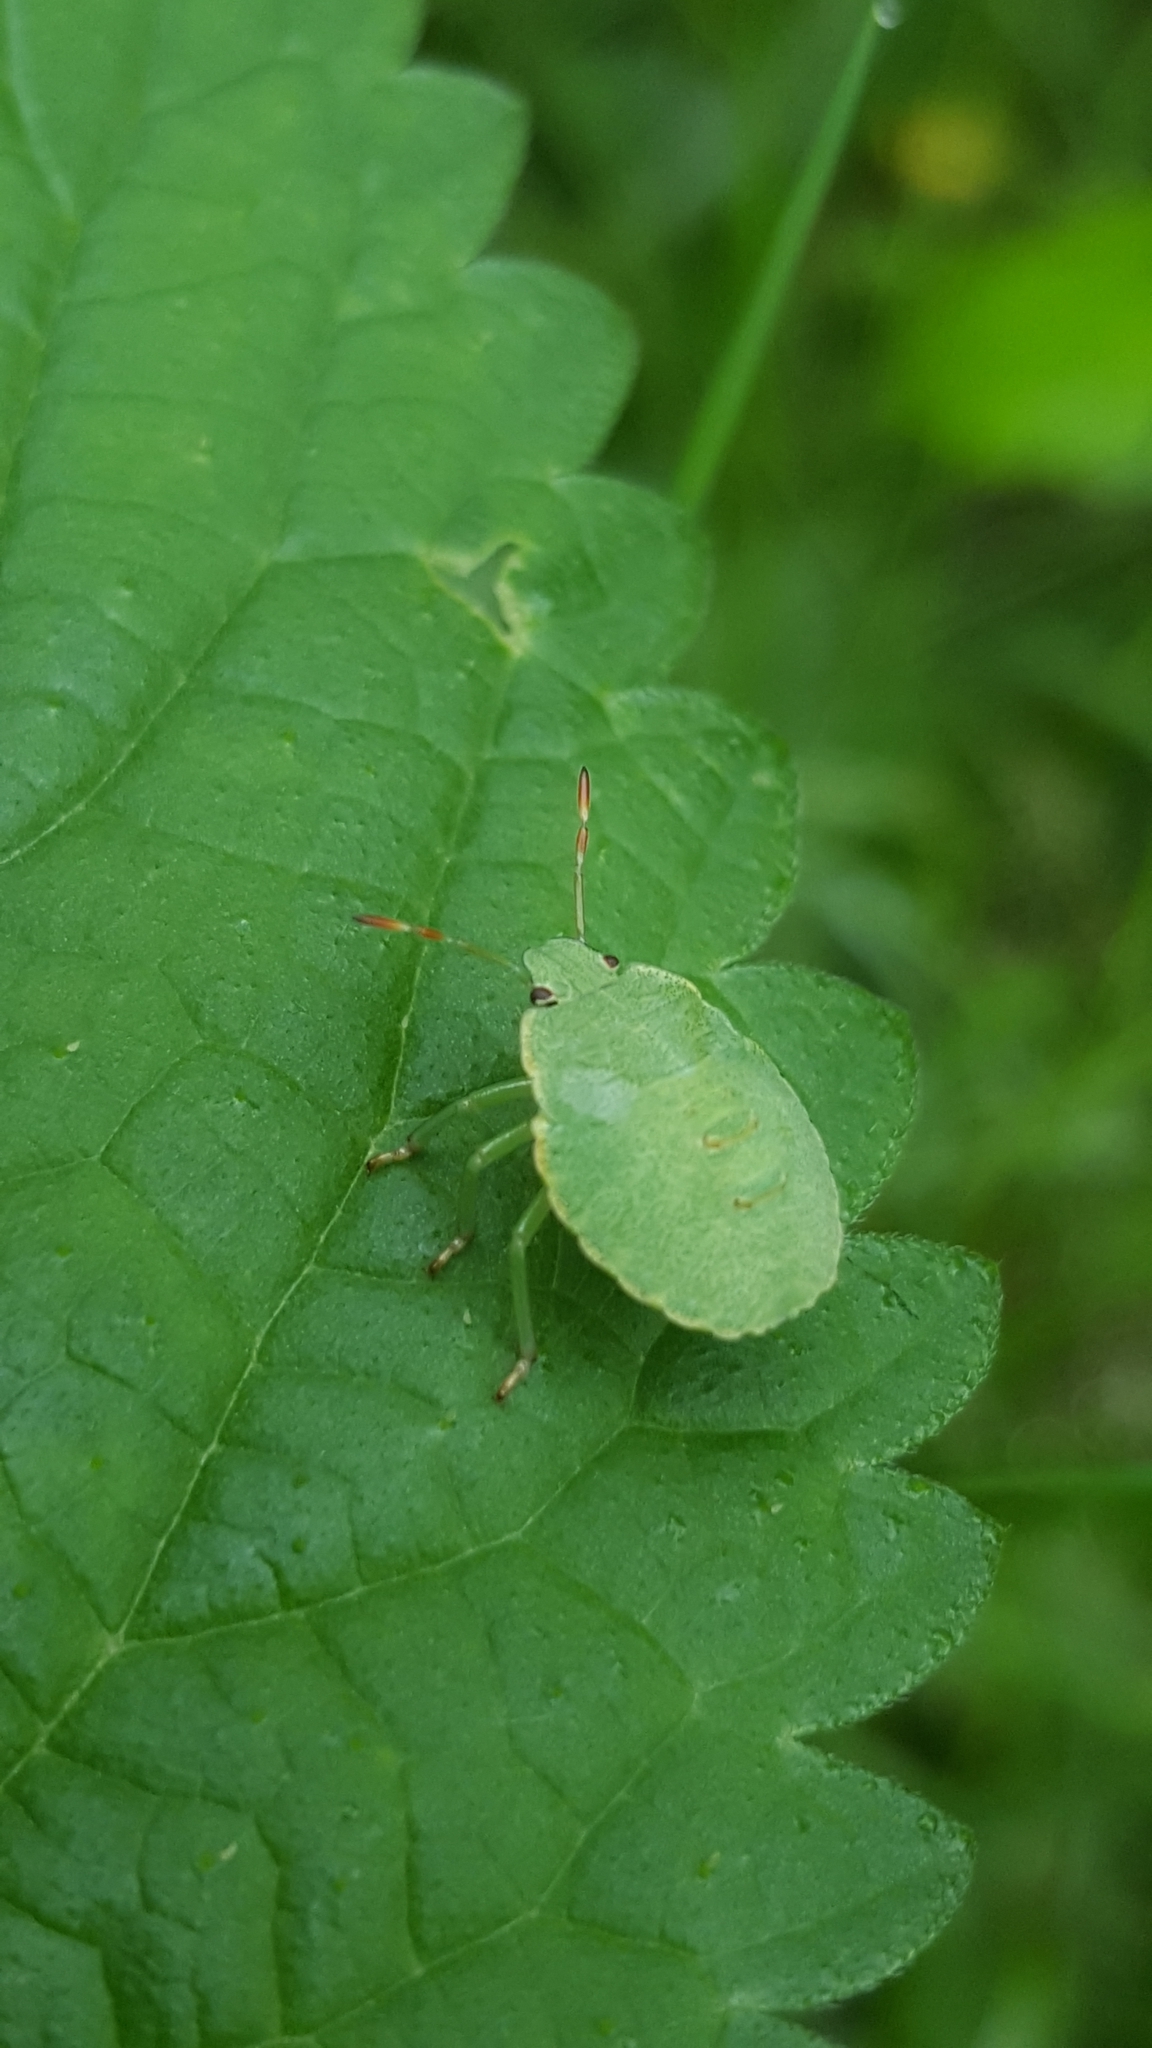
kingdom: Animalia
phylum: Arthropoda
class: Insecta
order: Hemiptera
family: Pentatomidae
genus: Palomena
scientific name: Palomena prasina
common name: Green shieldbug
